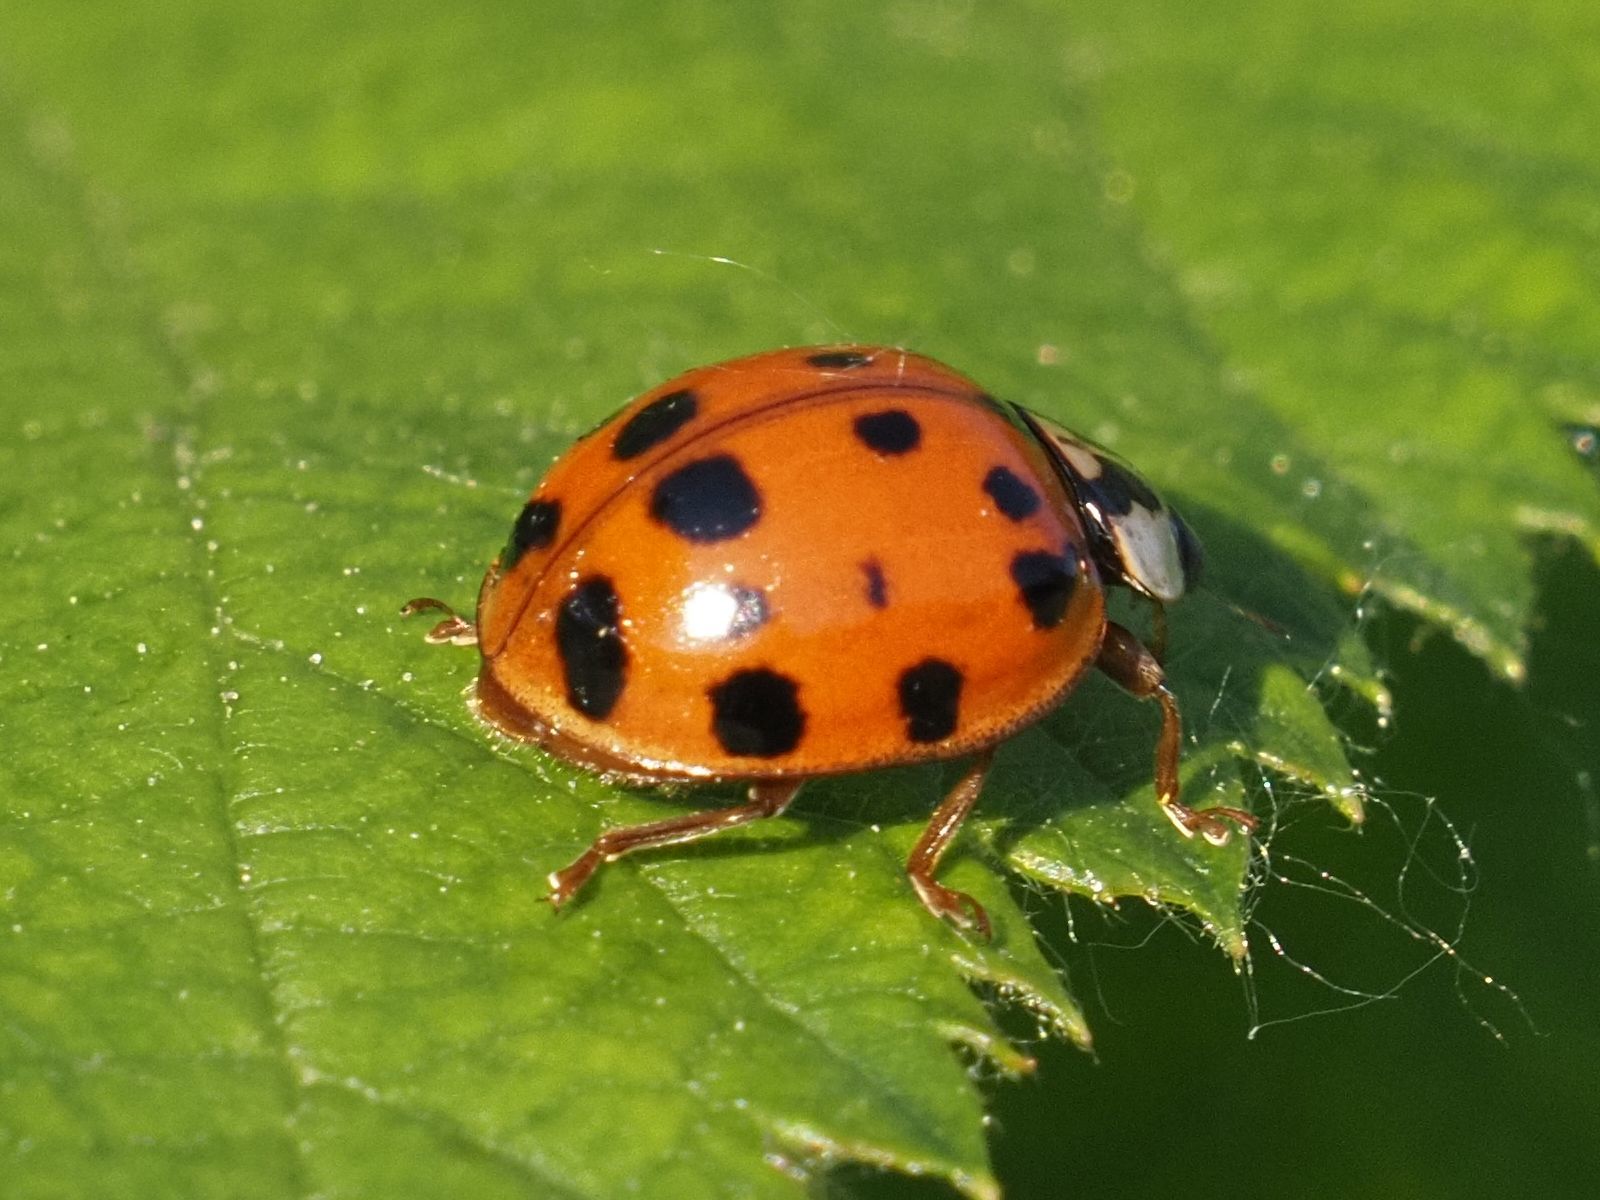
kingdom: Animalia
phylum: Arthropoda
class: Insecta
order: Coleoptera
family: Coccinellidae
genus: Harmonia
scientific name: Harmonia axyridis
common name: Harlequin ladybird
